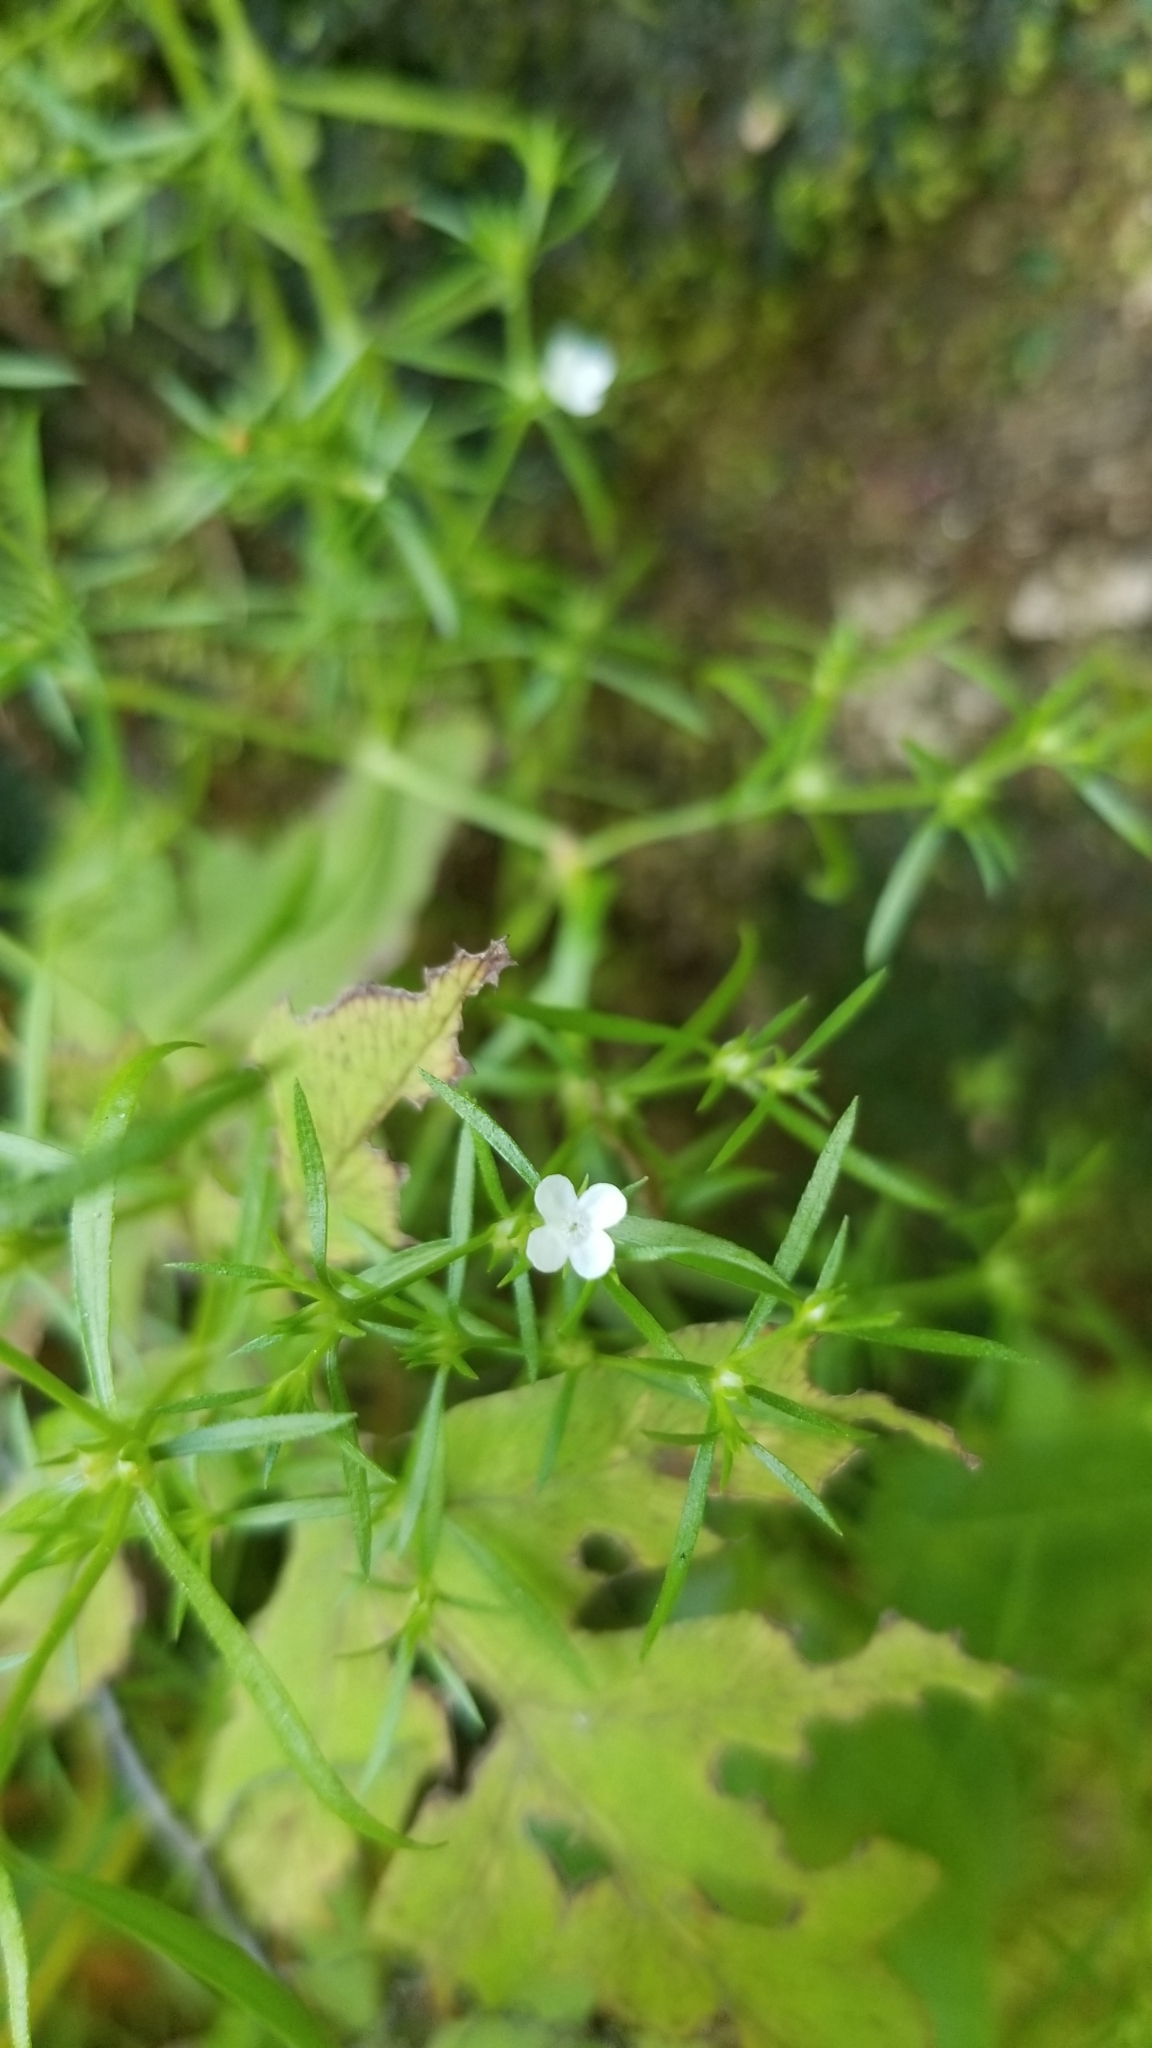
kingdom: Plantae
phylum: Tracheophyta
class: Magnoliopsida
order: Lamiales
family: Tetrachondraceae
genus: Polypremum
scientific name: Polypremum procumbens
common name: Juniper-leaf
